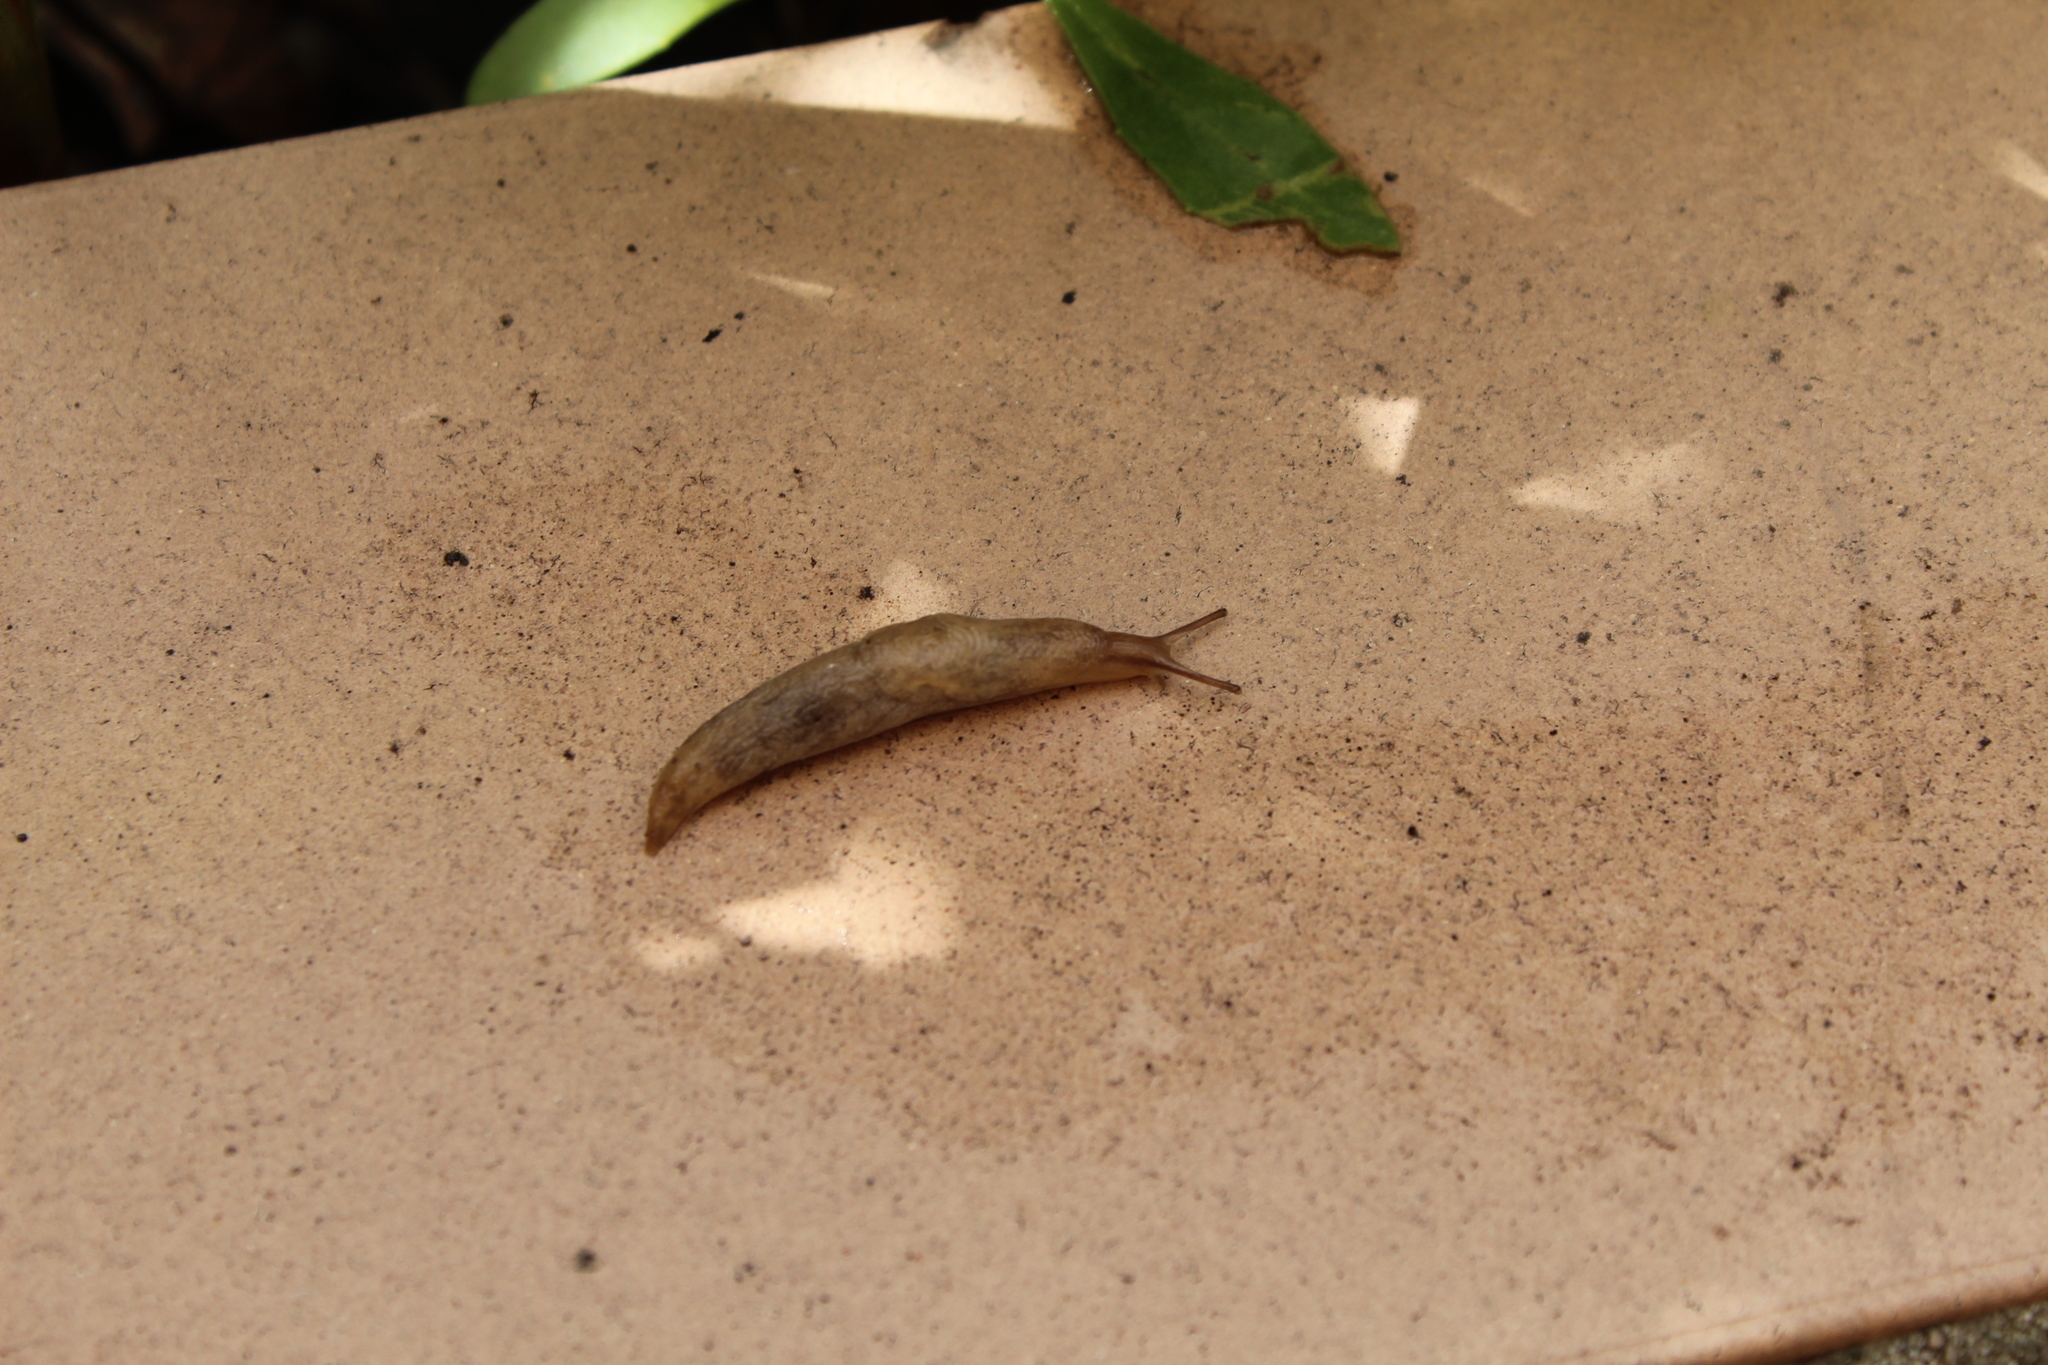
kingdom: Animalia
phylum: Mollusca
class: Gastropoda
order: Stylommatophora
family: Agriolimacidae
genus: Deroceras
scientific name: Deroceras reticulatum
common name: Gray field slug
